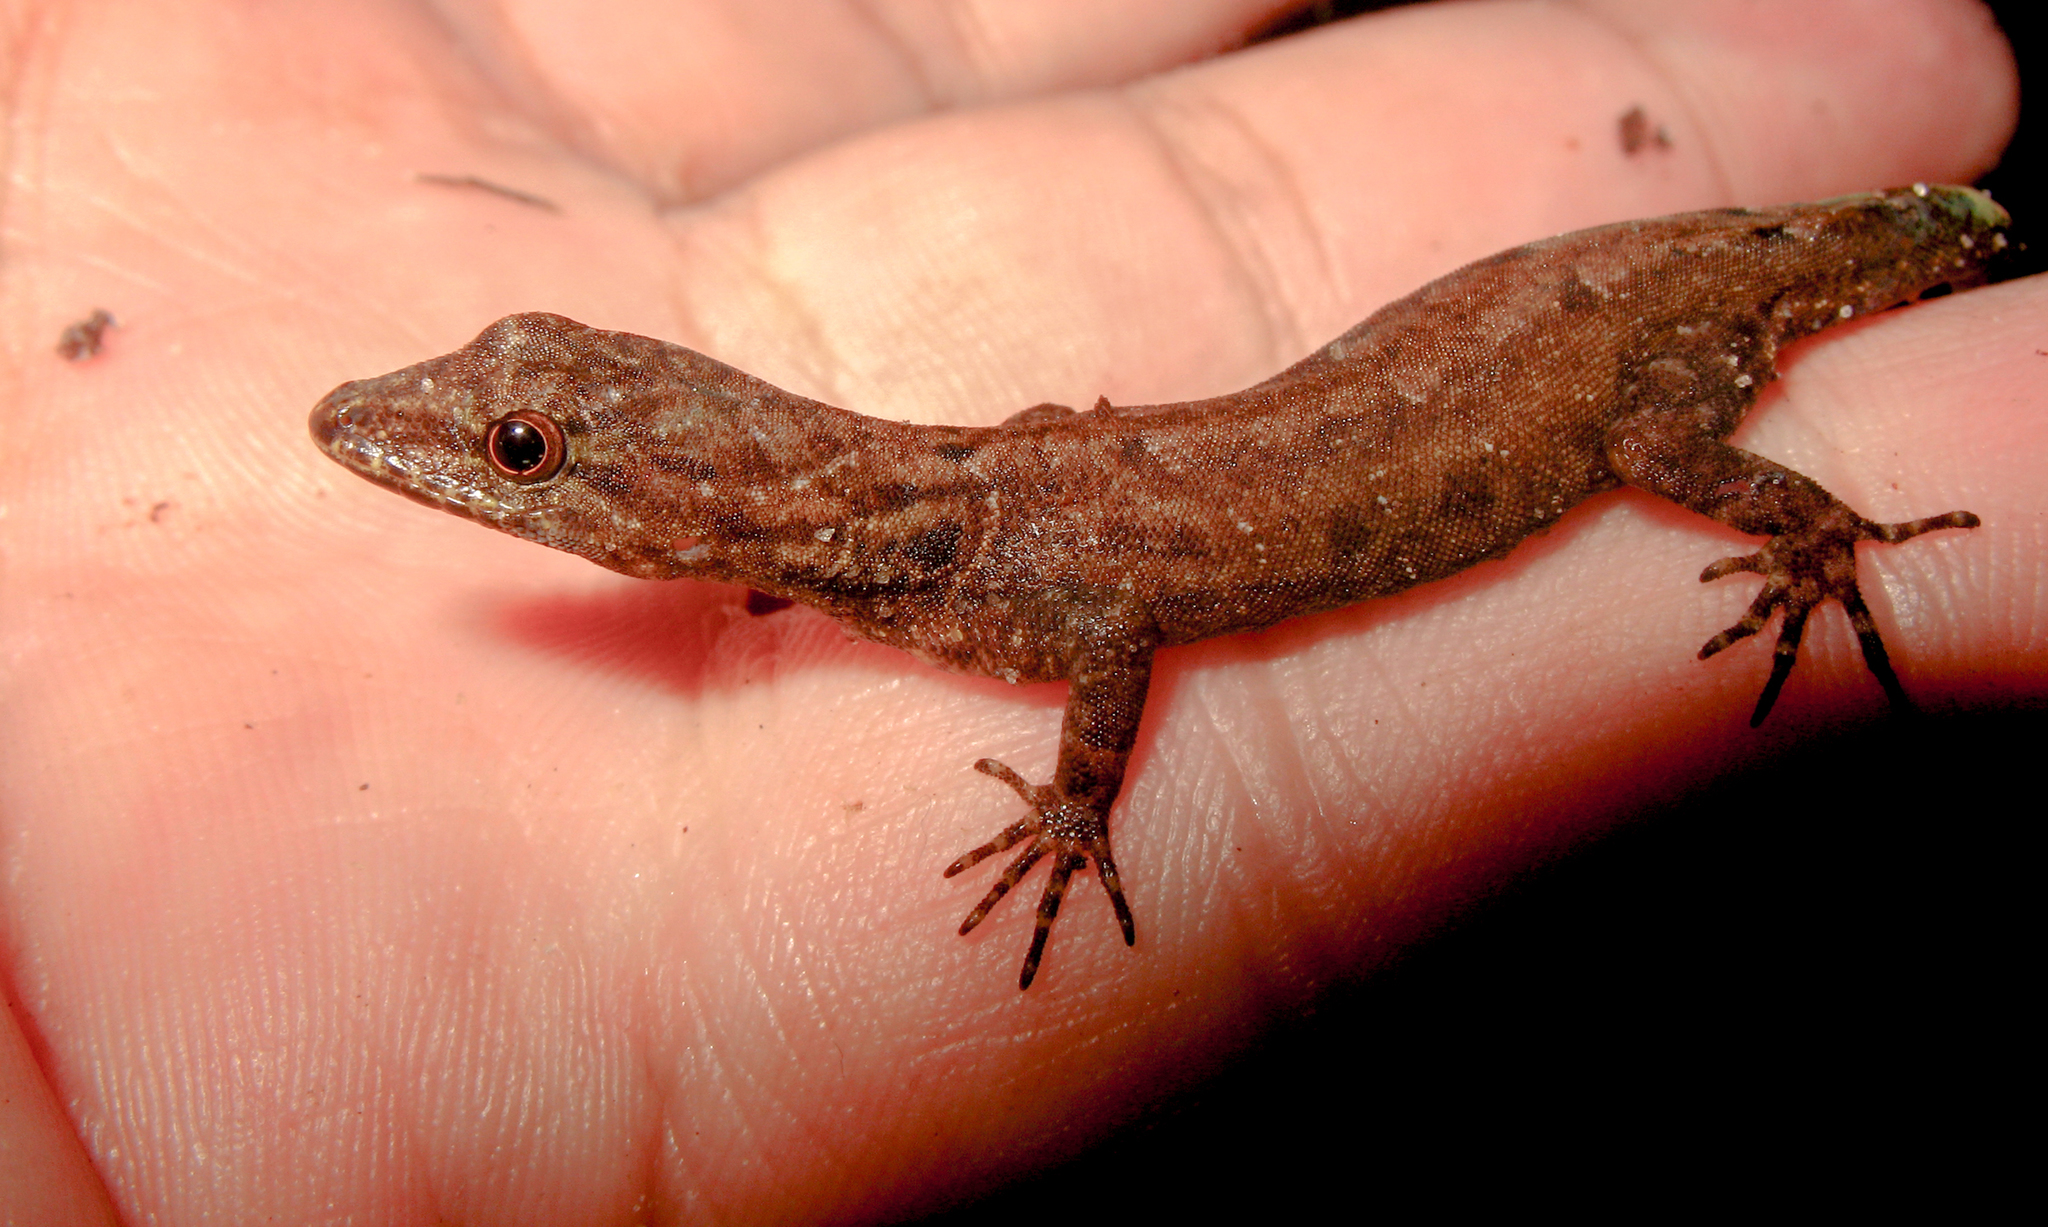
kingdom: Animalia
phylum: Chordata
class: Squamata
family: Sphaerodactylidae
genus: Gonatodes
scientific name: Gonatodes humeralis
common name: South american clawed gecko
